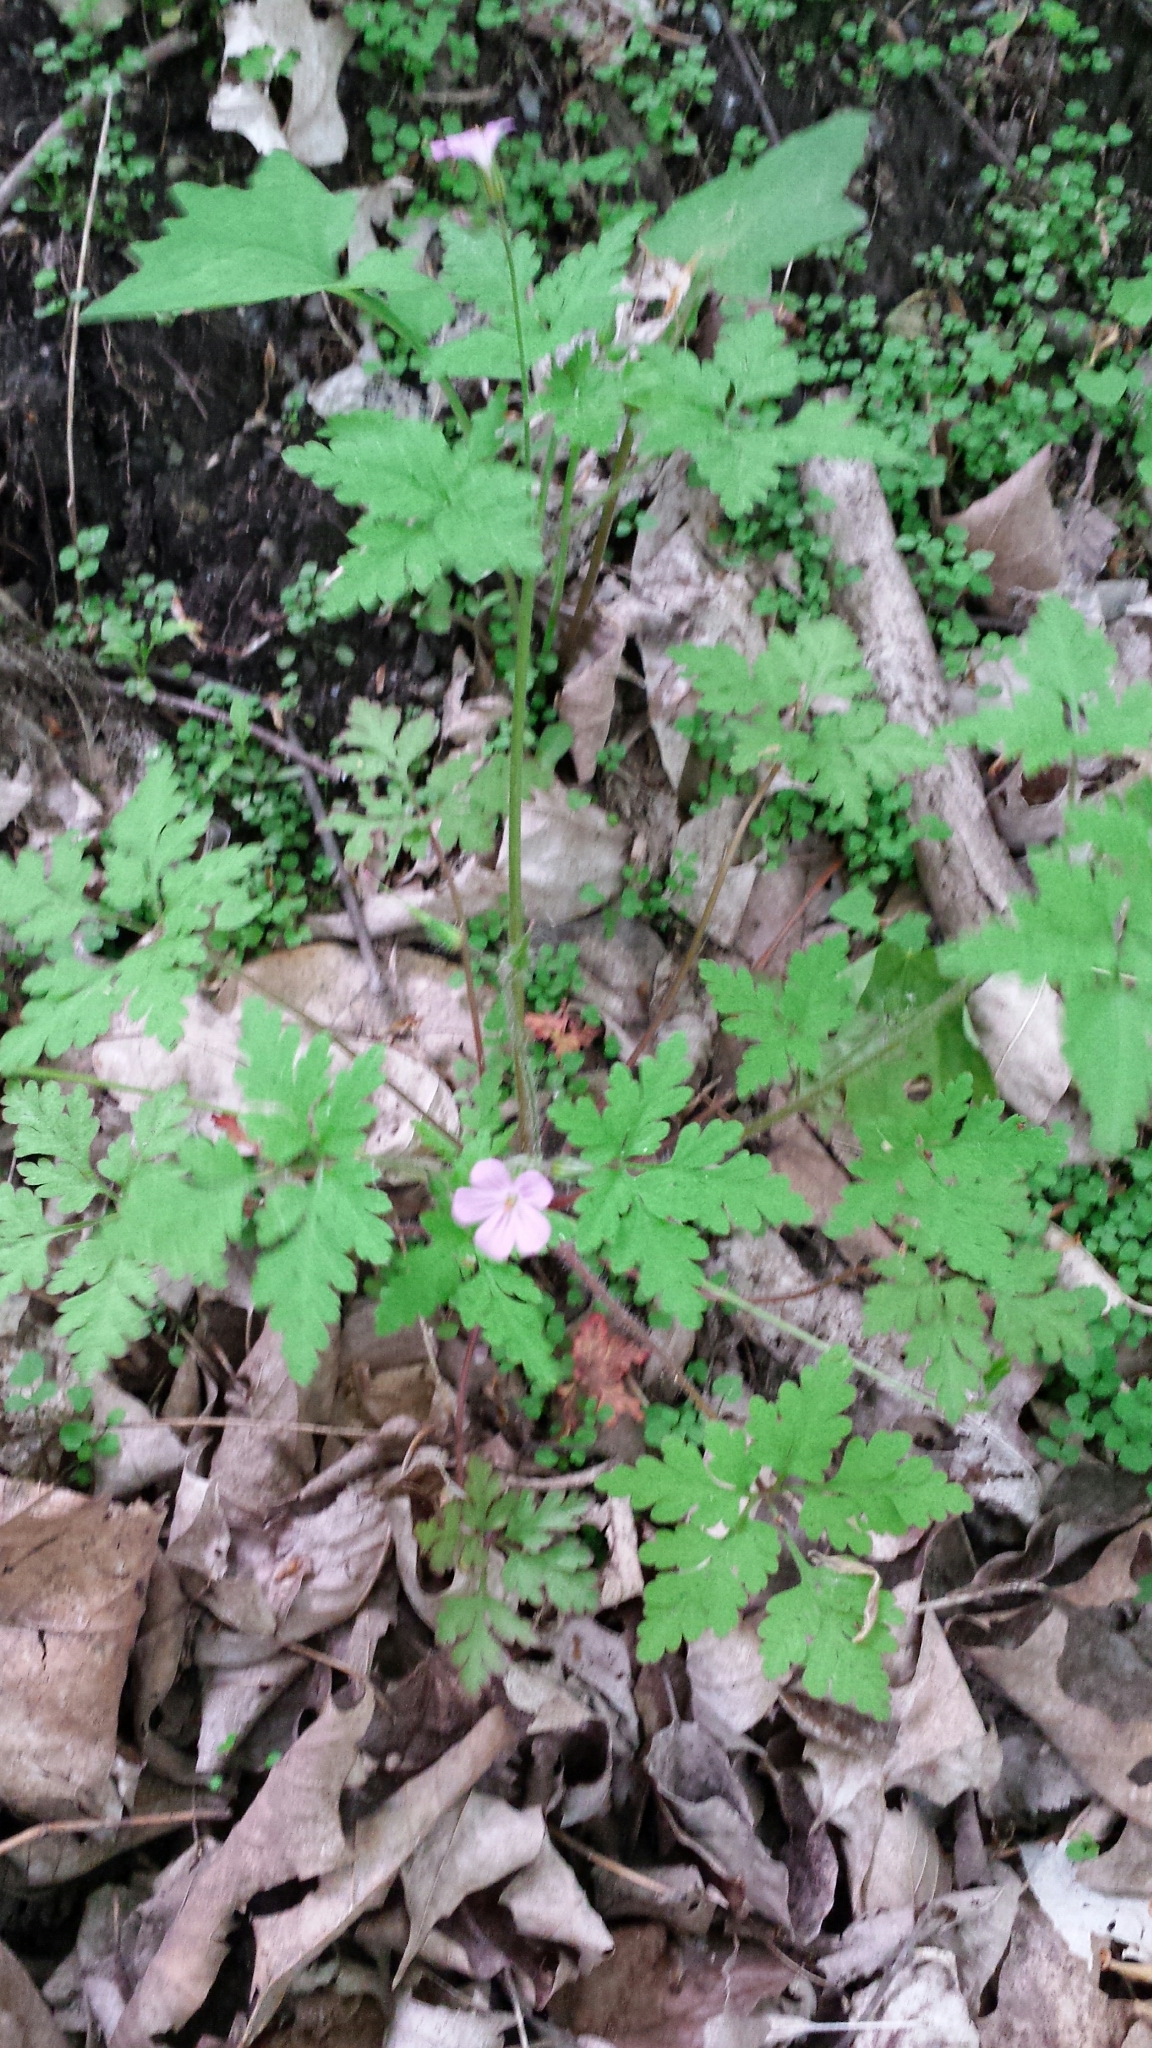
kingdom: Plantae
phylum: Tracheophyta
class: Magnoliopsida
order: Geraniales
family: Geraniaceae
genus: Geranium
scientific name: Geranium robertianum
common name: Herb-robert
